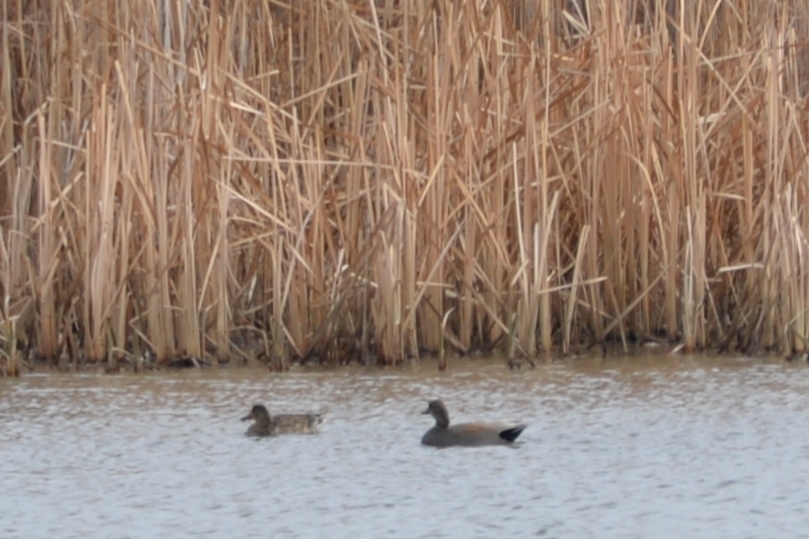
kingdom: Animalia
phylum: Chordata
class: Aves
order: Anseriformes
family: Anatidae
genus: Mareca
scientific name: Mareca strepera
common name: Gadwall
